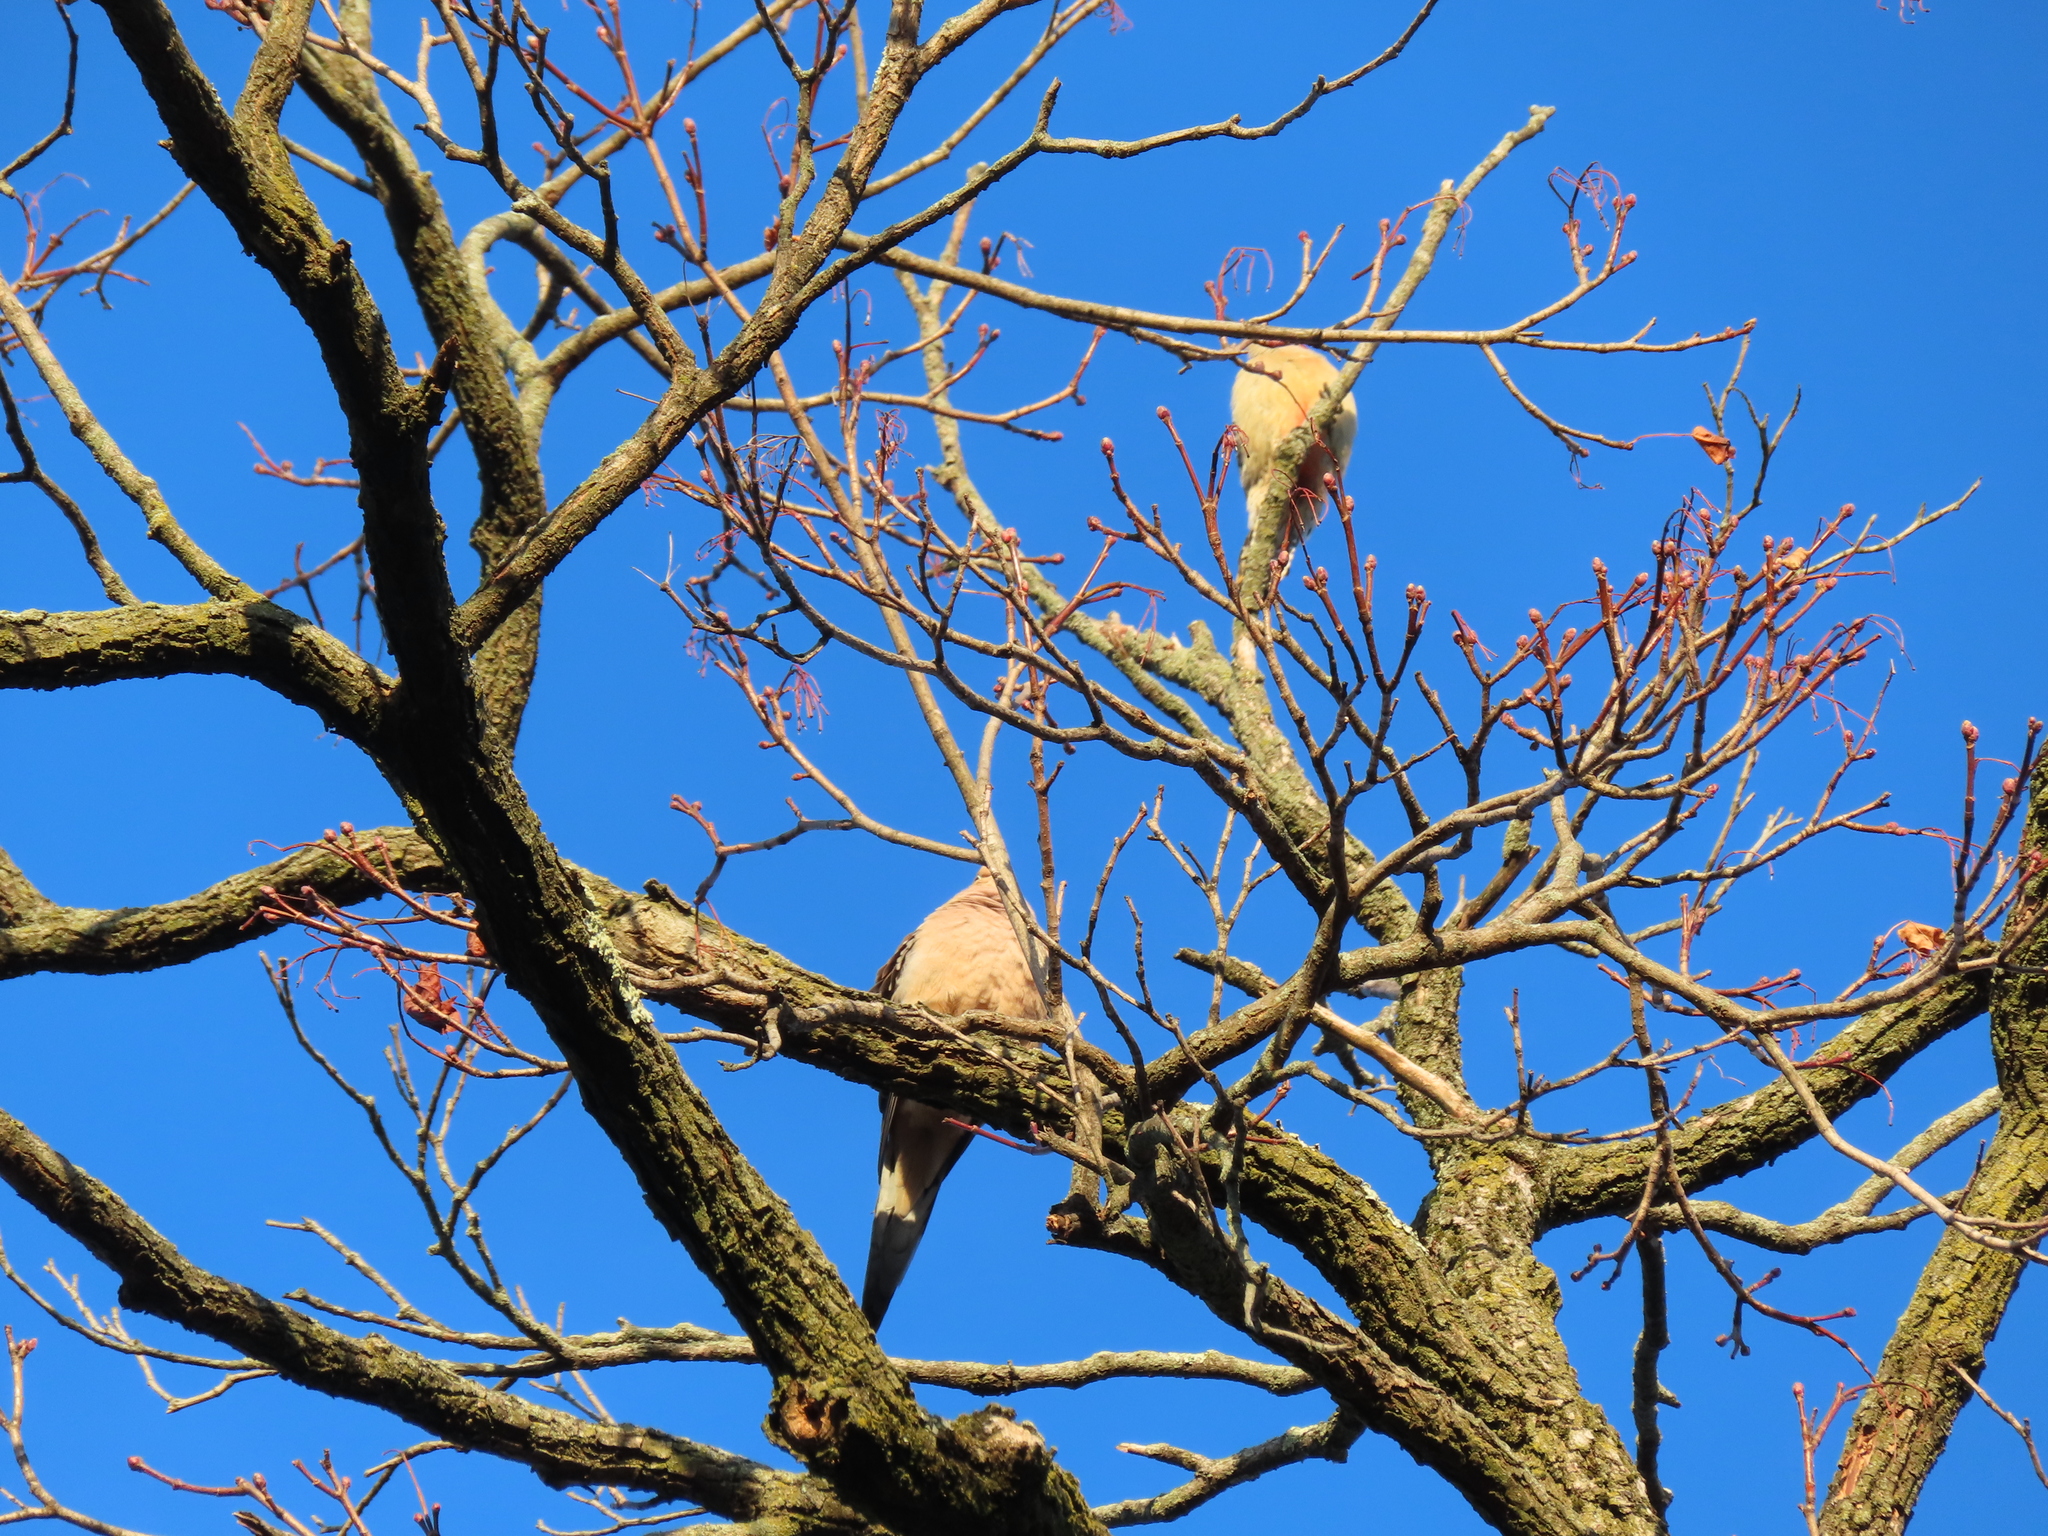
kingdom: Animalia
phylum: Chordata
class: Aves
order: Columbiformes
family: Columbidae
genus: Zenaida
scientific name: Zenaida macroura
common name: Mourning dove
